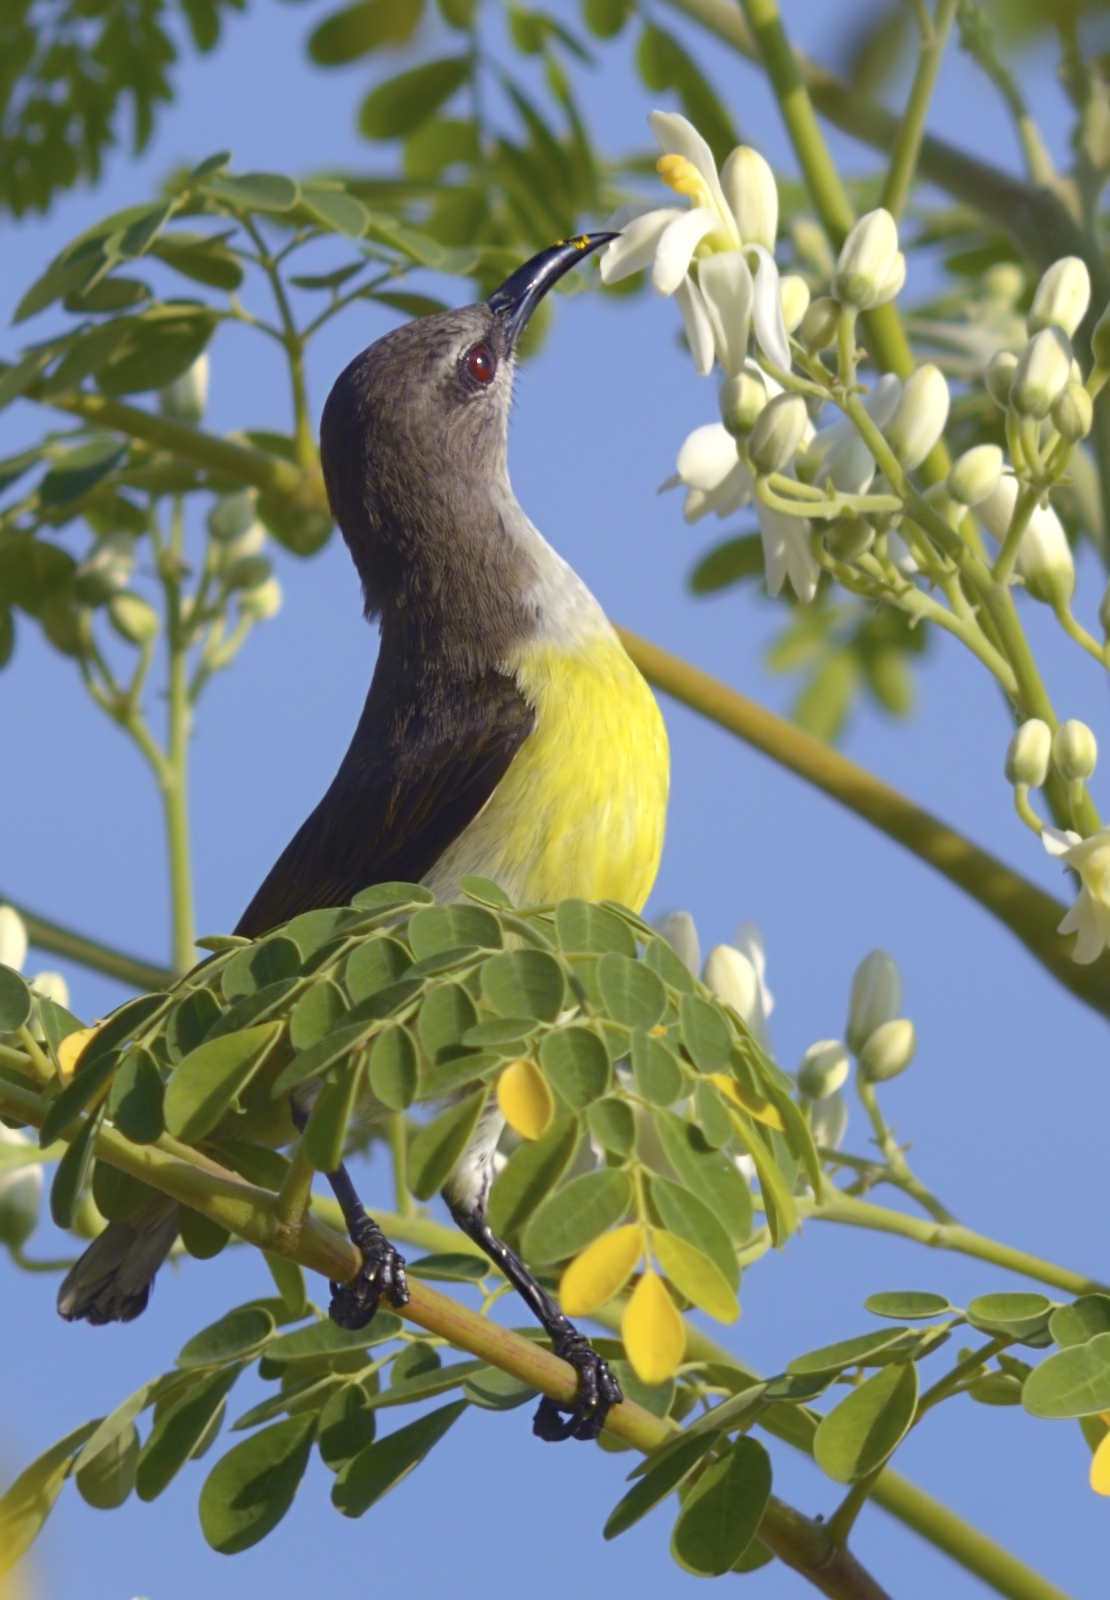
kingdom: Animalia
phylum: Chordata
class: Aves
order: Passeriformes
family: Nectariniidae
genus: Leptocoma
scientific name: Leptocoma zeylonica
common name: Purple-rumped sunbird
